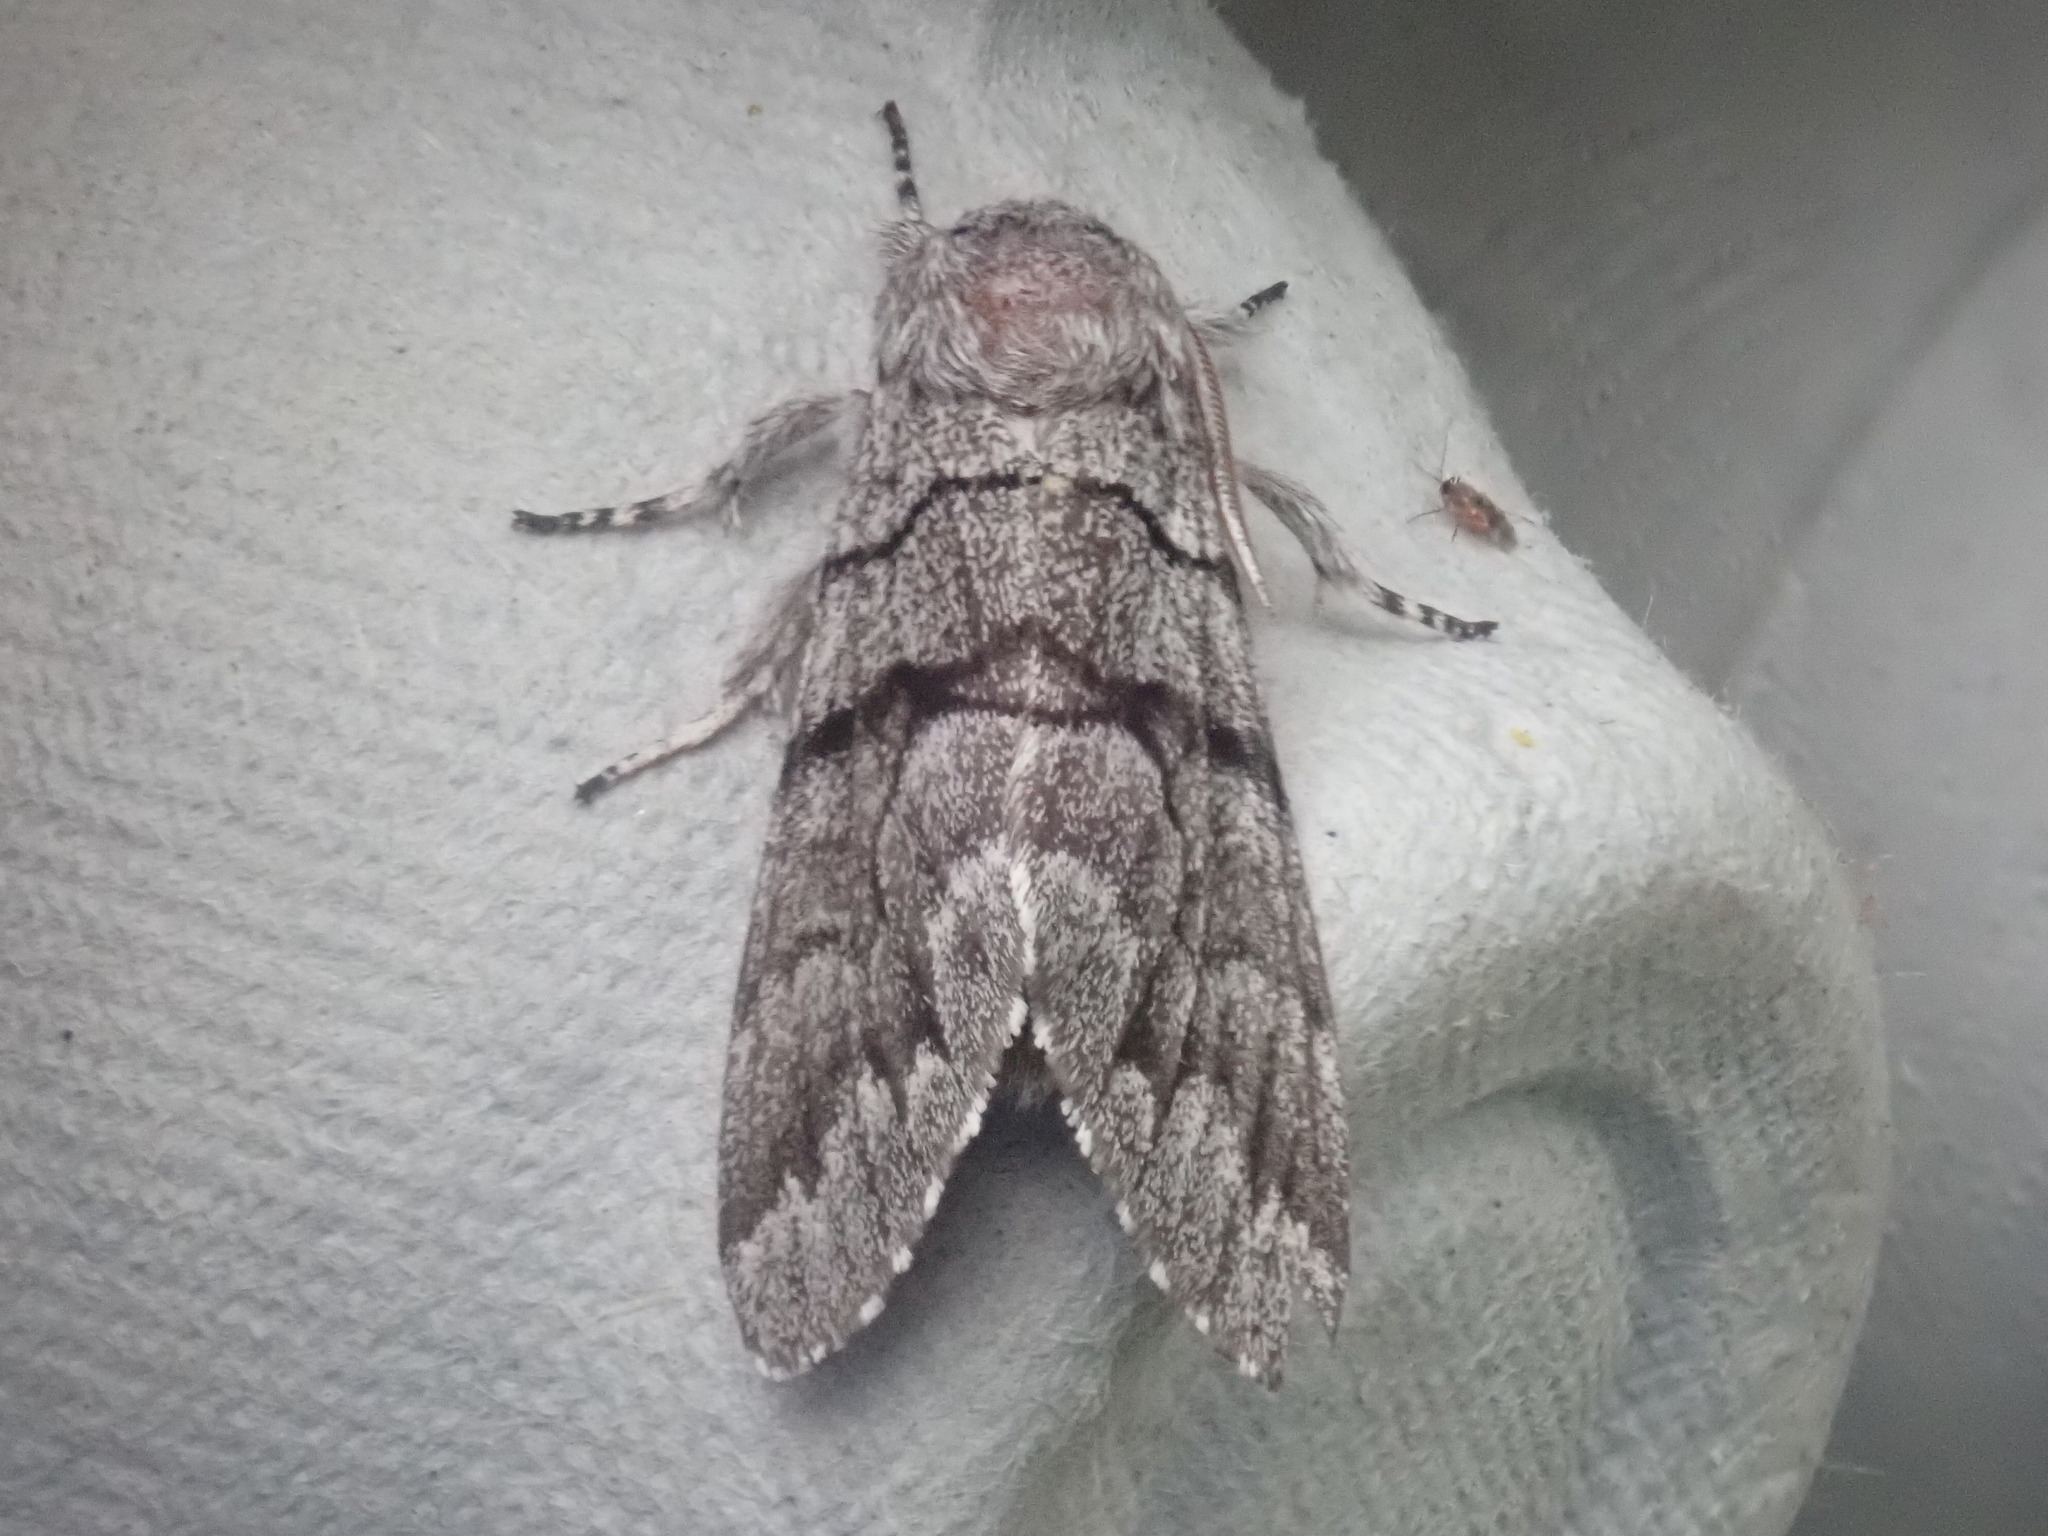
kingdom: Animalia
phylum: Arthropoda
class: Insecta
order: Lepidoptera
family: Noctuidae
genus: Panthea
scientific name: Panthea furcilla
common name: Eastern panthea moth
